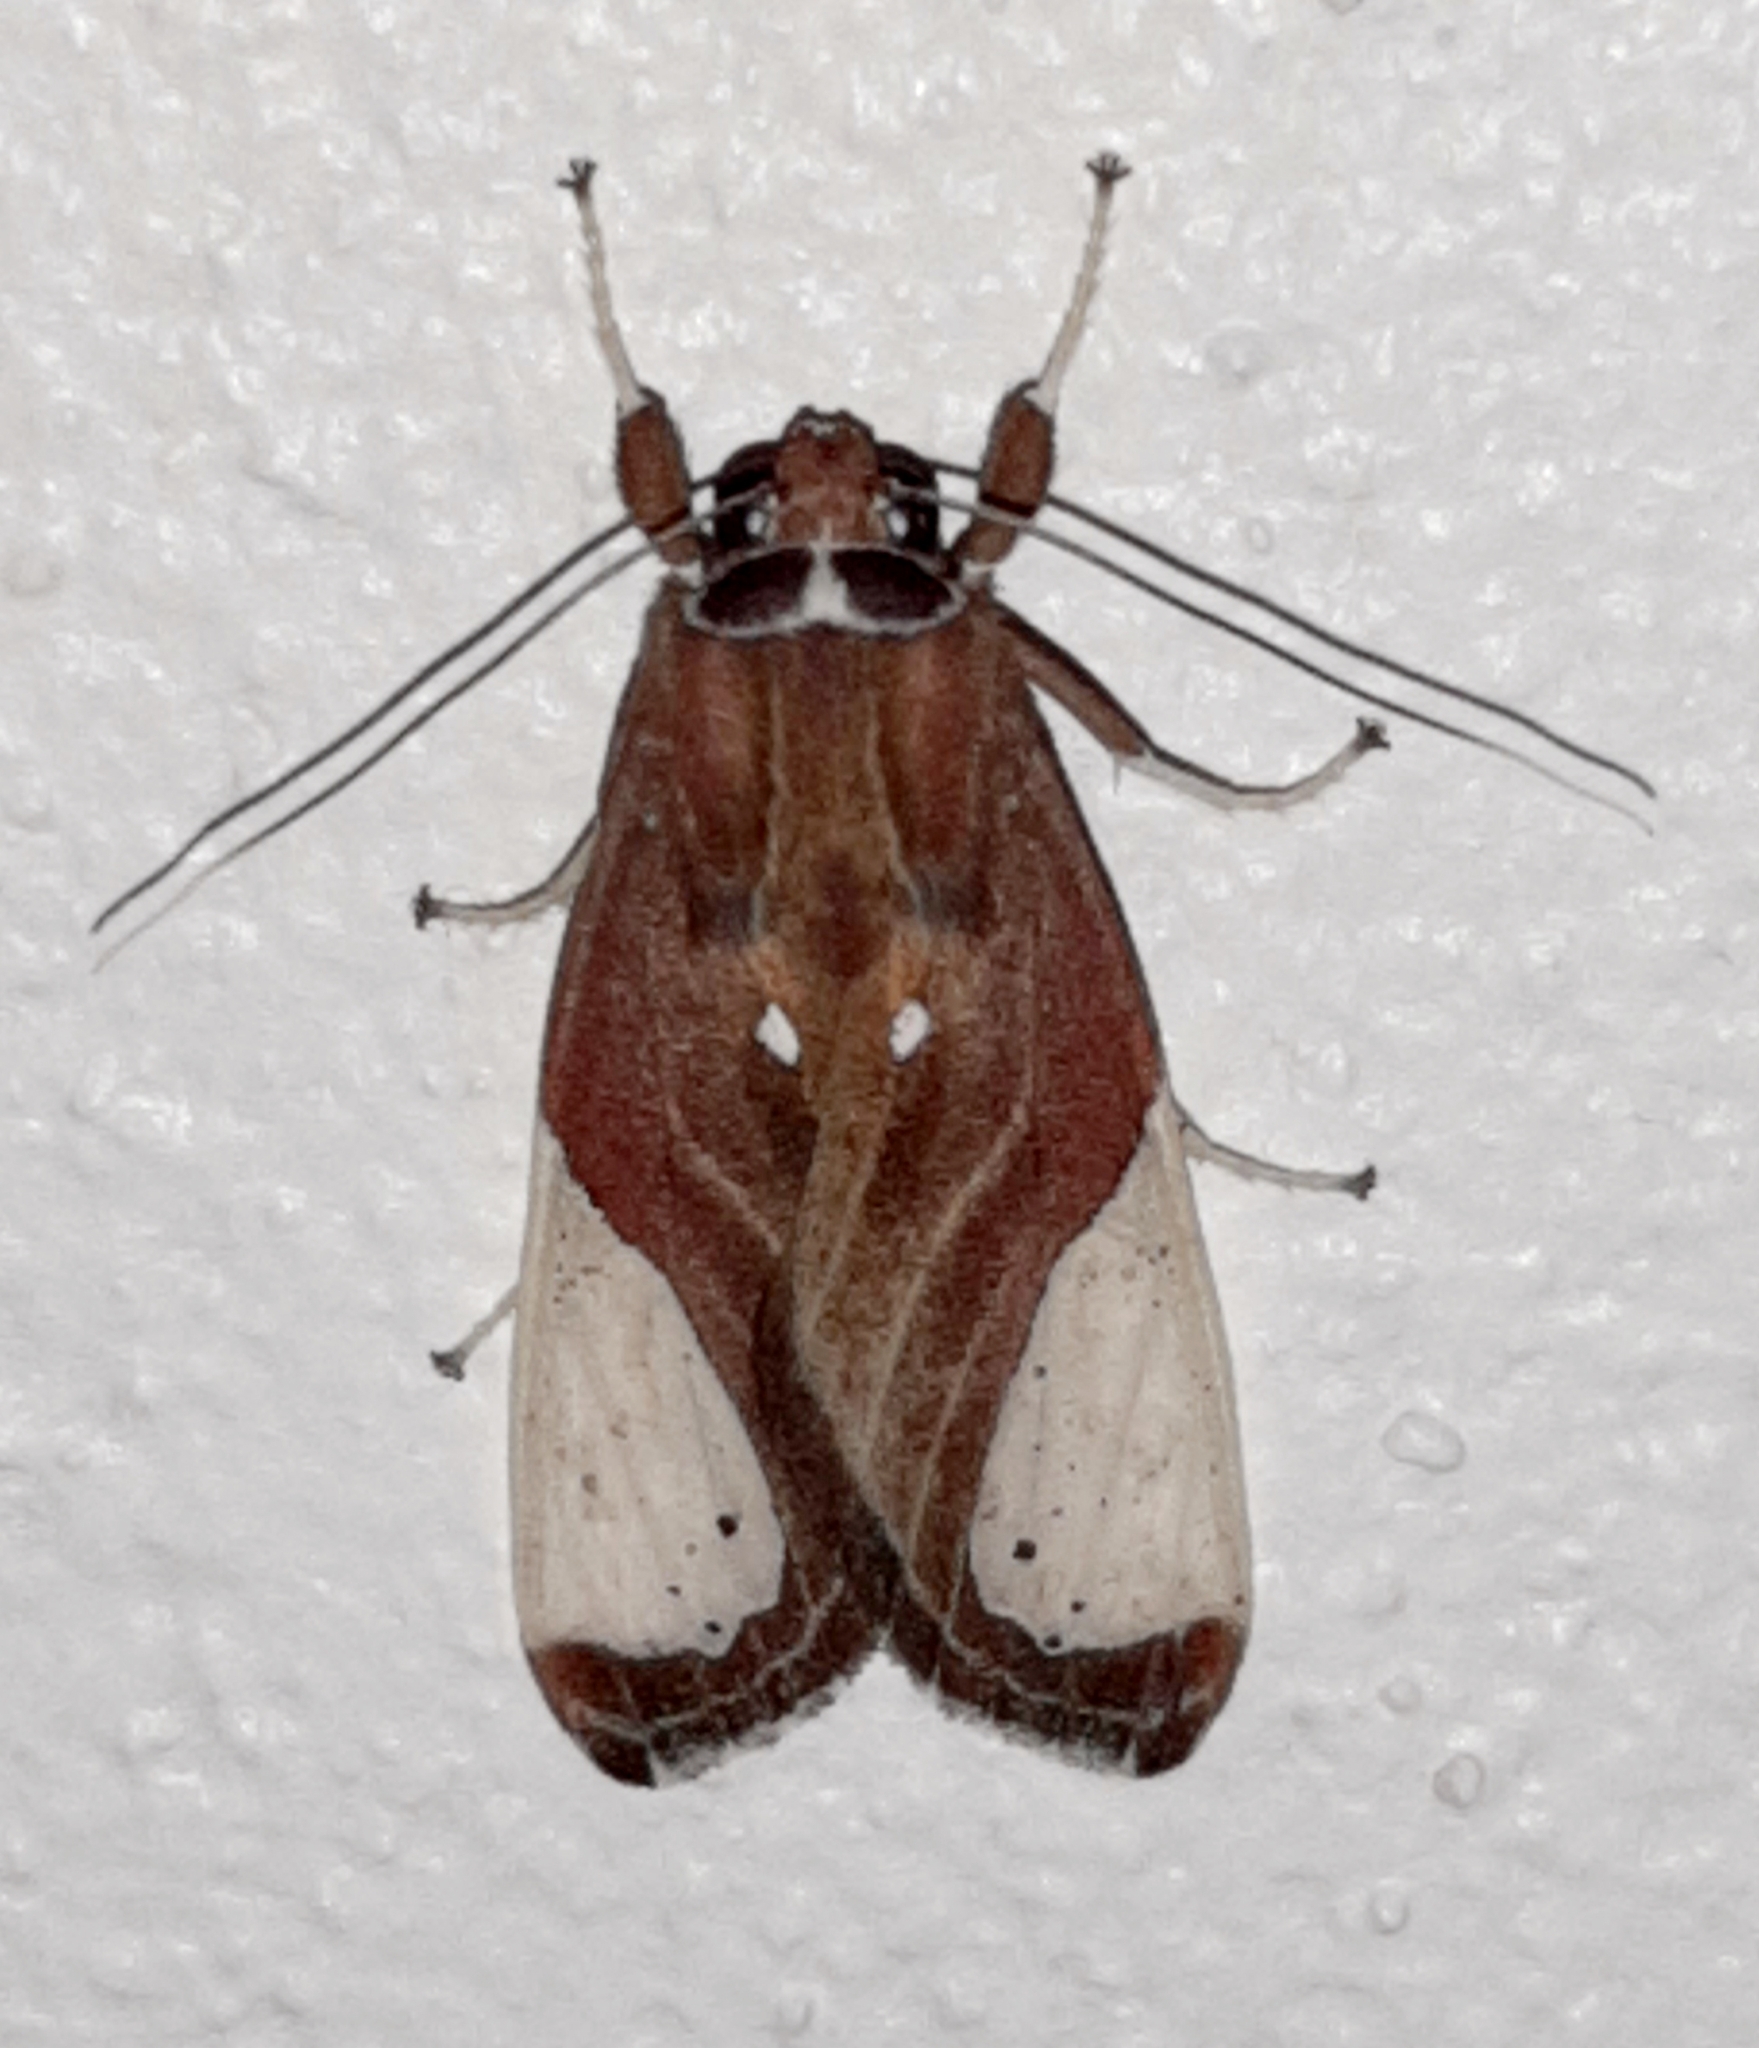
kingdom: Animalia
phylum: Arthropoda
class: Insecta
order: Lepidoptera
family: Erebidae
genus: Bertholdia
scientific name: Bertholdia myosticta
